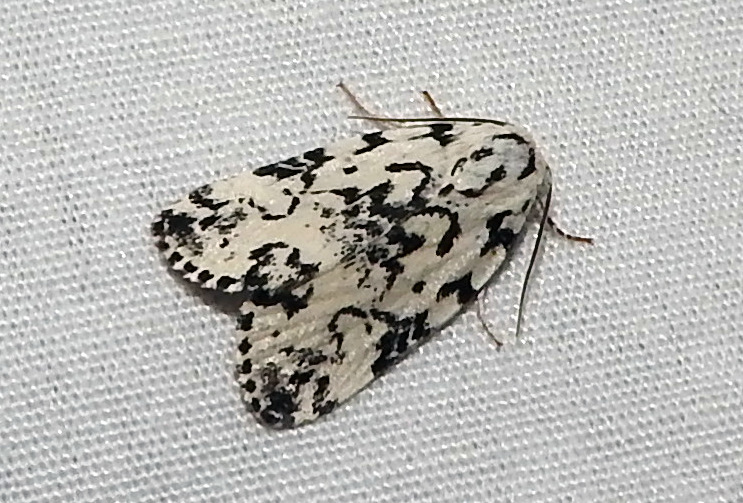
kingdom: Animalia
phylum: Arthropoda
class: Insecta
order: Lepidoptera
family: Noctuidae
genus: Polygrammate
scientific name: Polygrammate hebraeicum
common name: Hebrew moth
